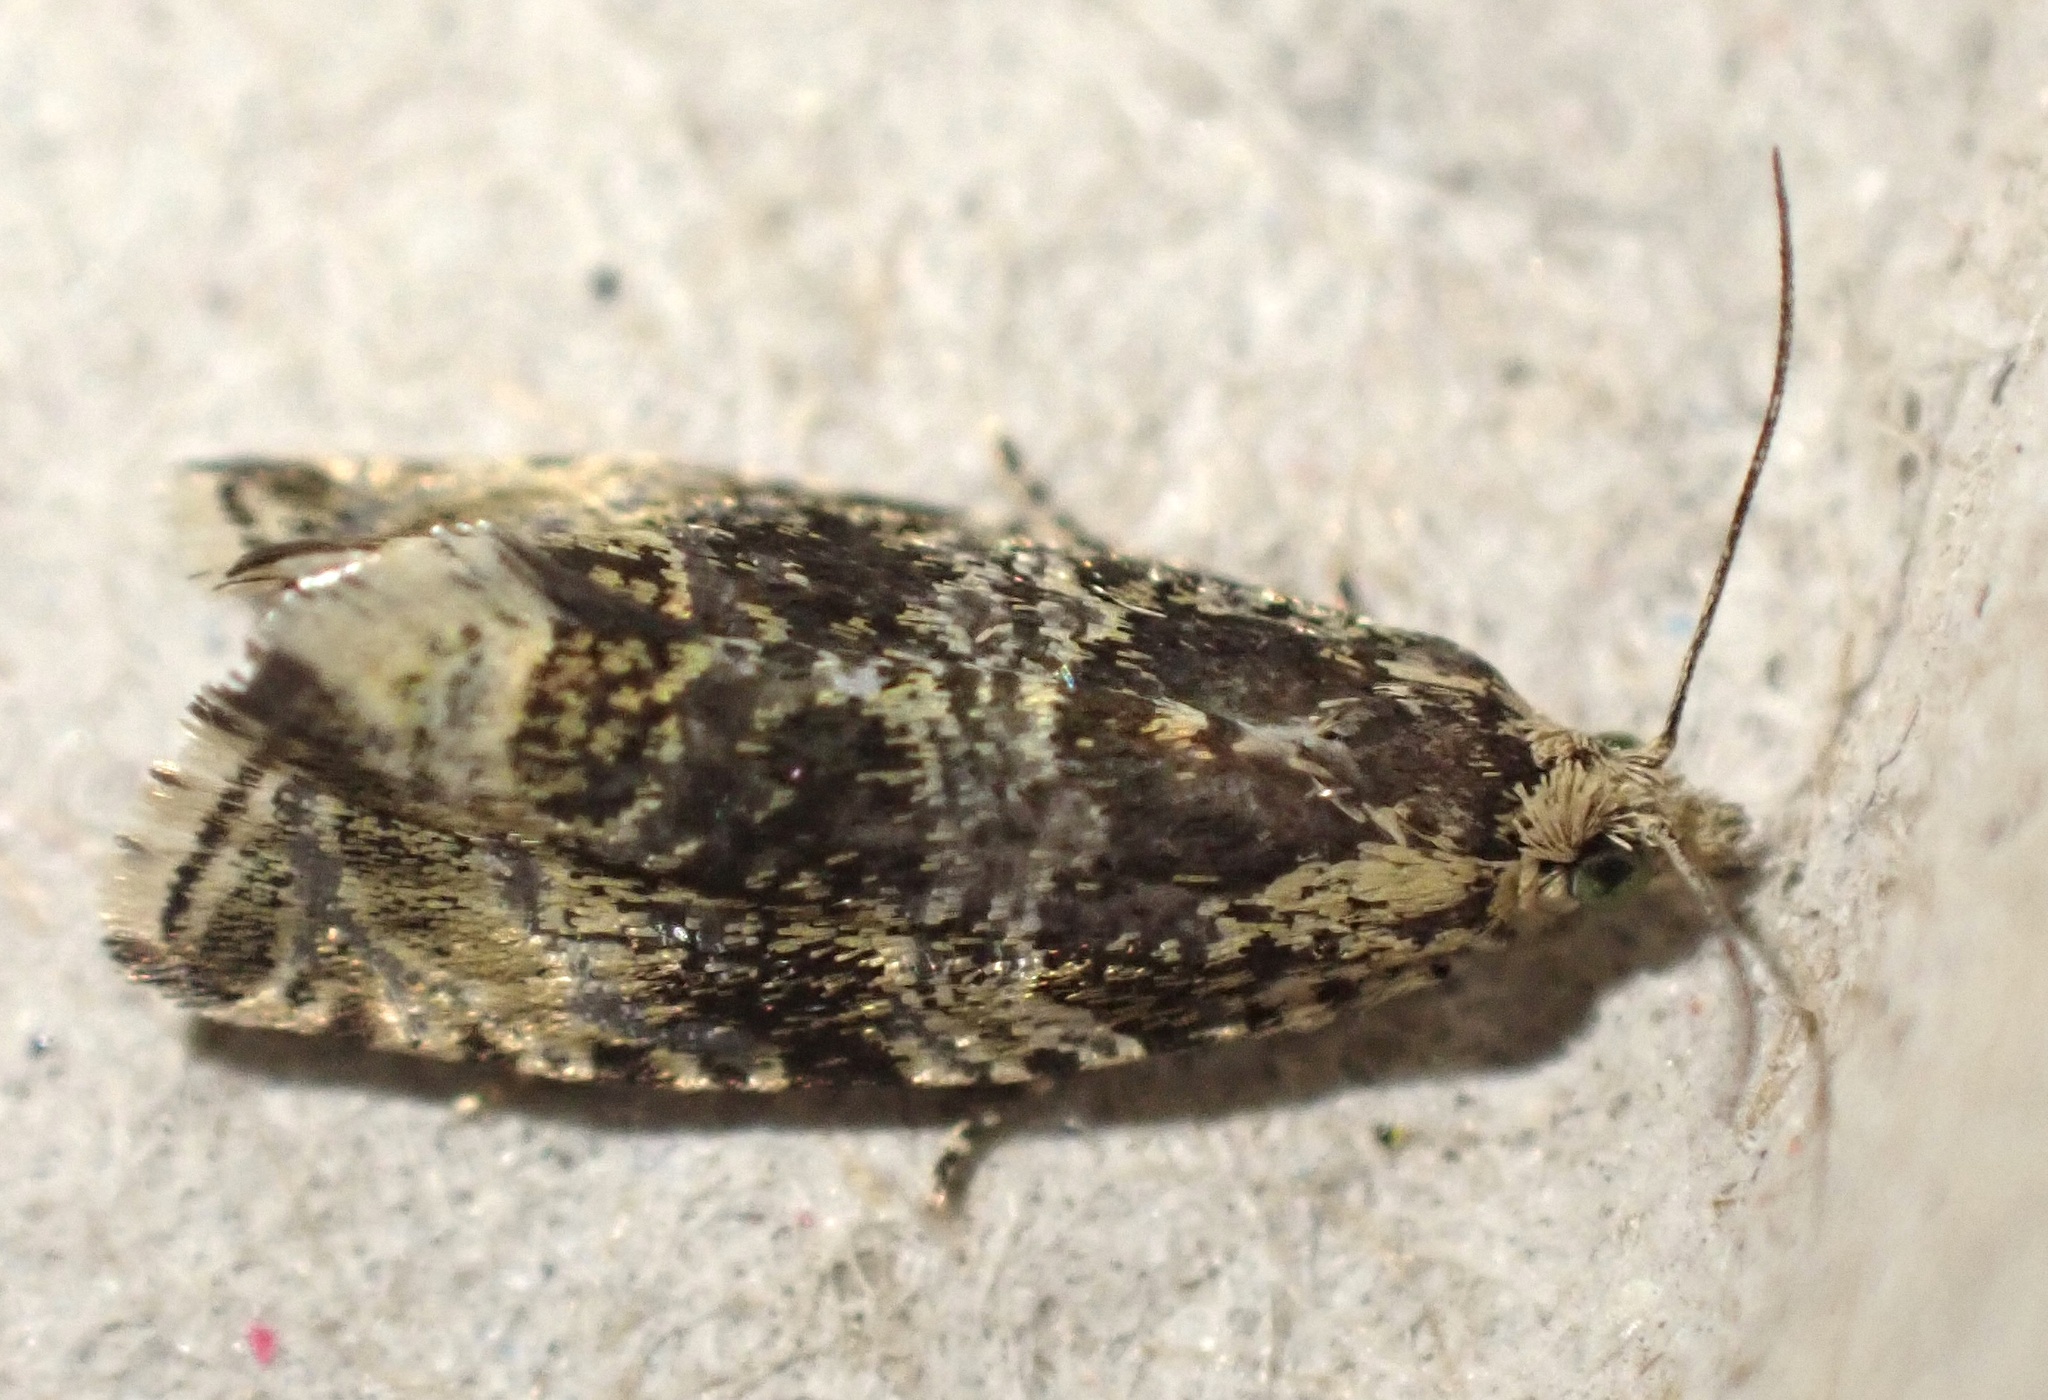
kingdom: Animalia
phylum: Arthropoda
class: Insecta
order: Lepidoptera
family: Tortricidae
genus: Syricoris
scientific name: Syricoris lacunana
